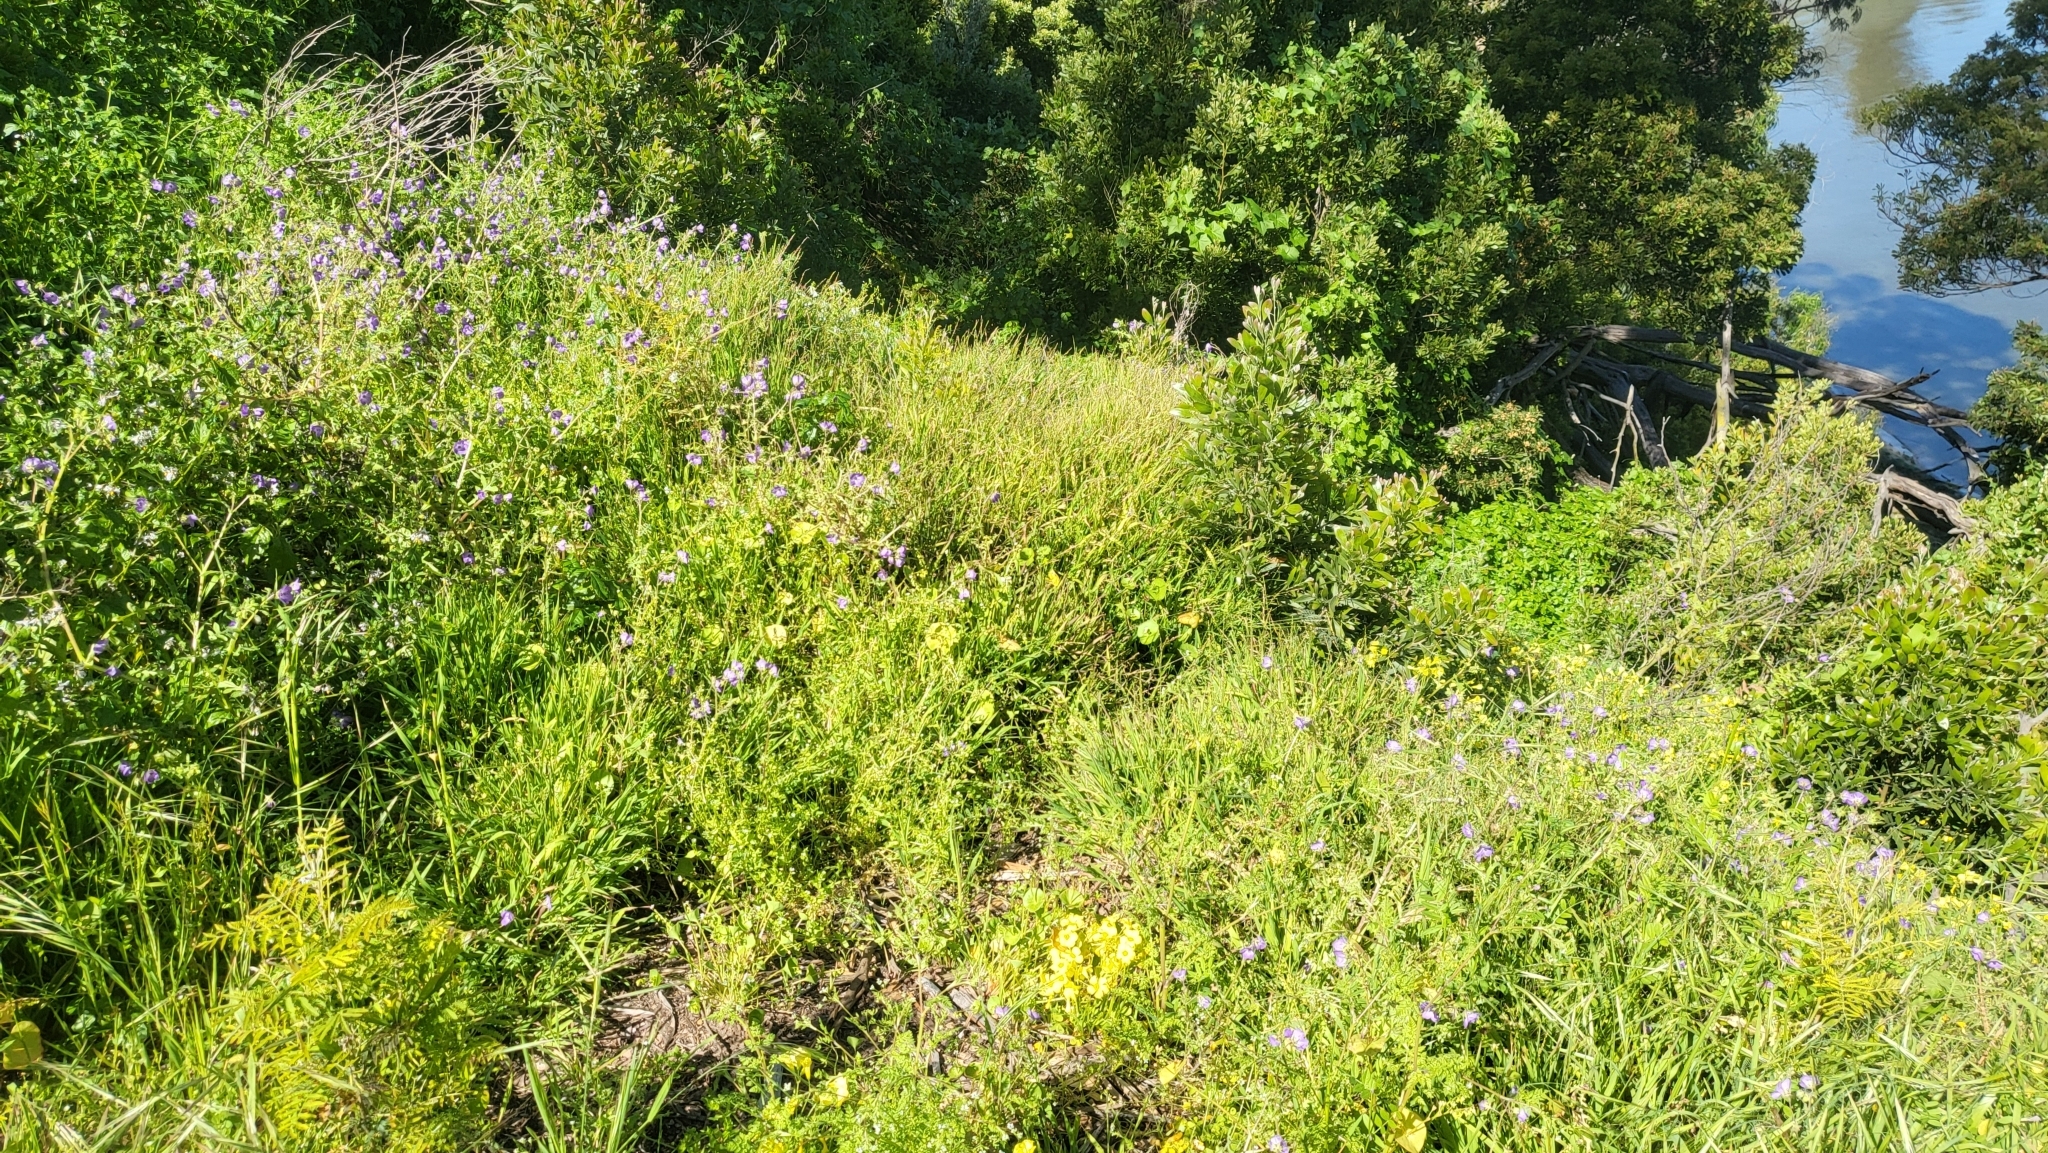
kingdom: Plantae
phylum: Tracheophyta
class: Magnoliopsida
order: Boraginales
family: Hydrophyllaceae
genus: Pholistoma
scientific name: Pholistoma auritum
